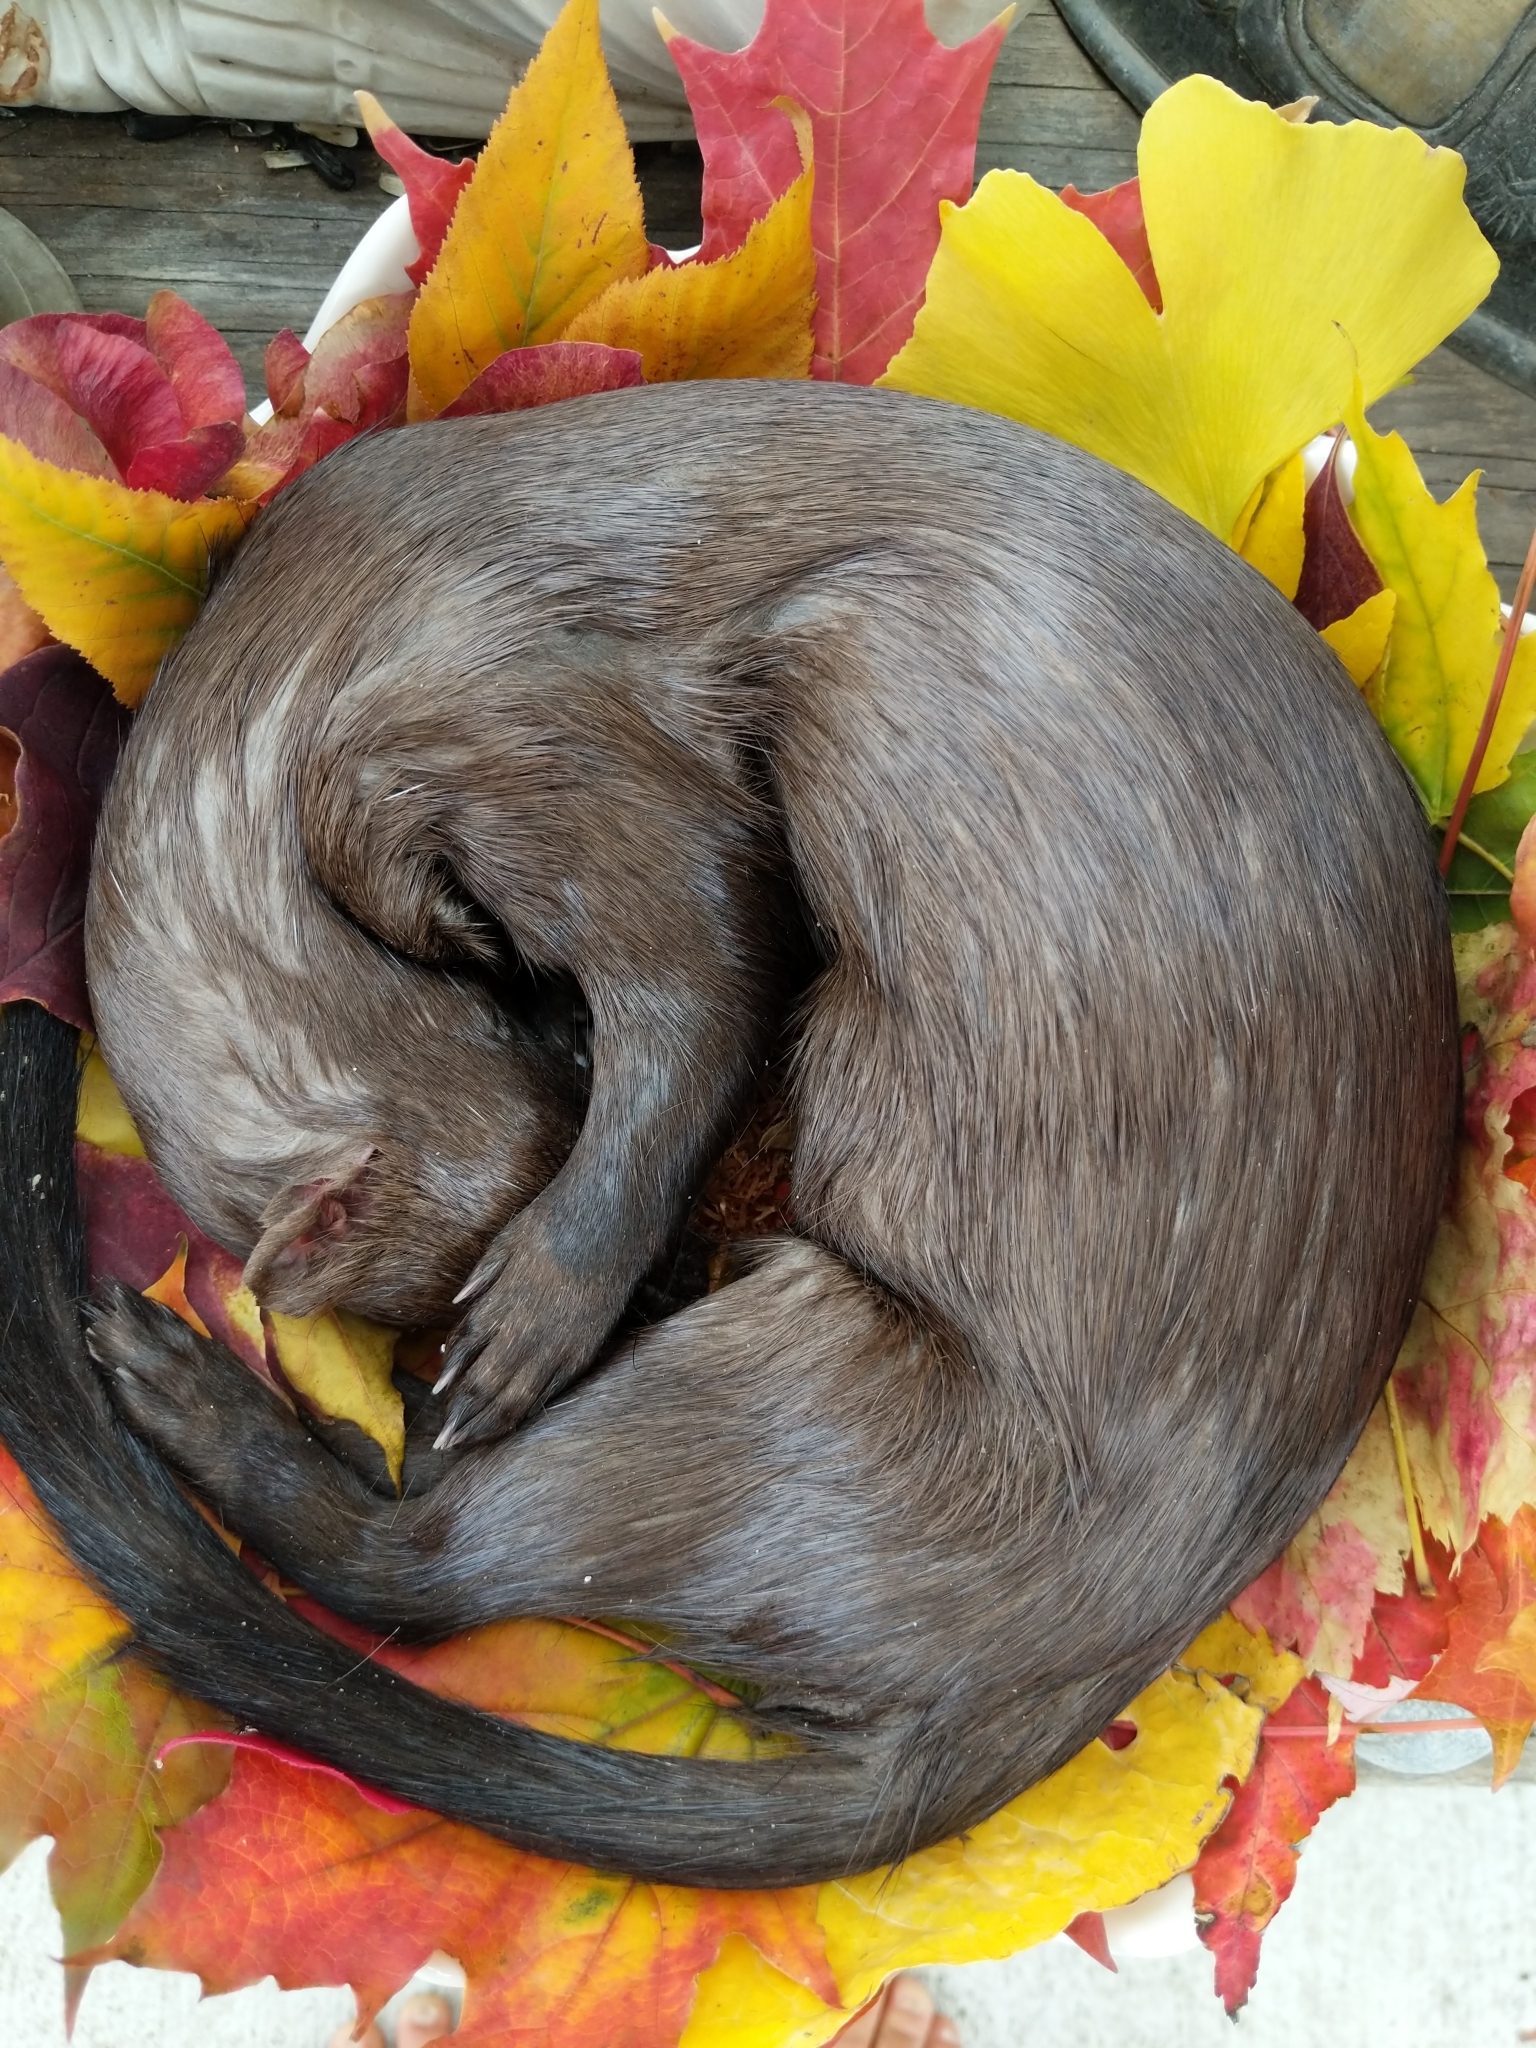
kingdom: Animalia
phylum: Chordata
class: Mammalia
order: Carnivora
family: Mustelidae
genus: Mustela
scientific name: Mustela
